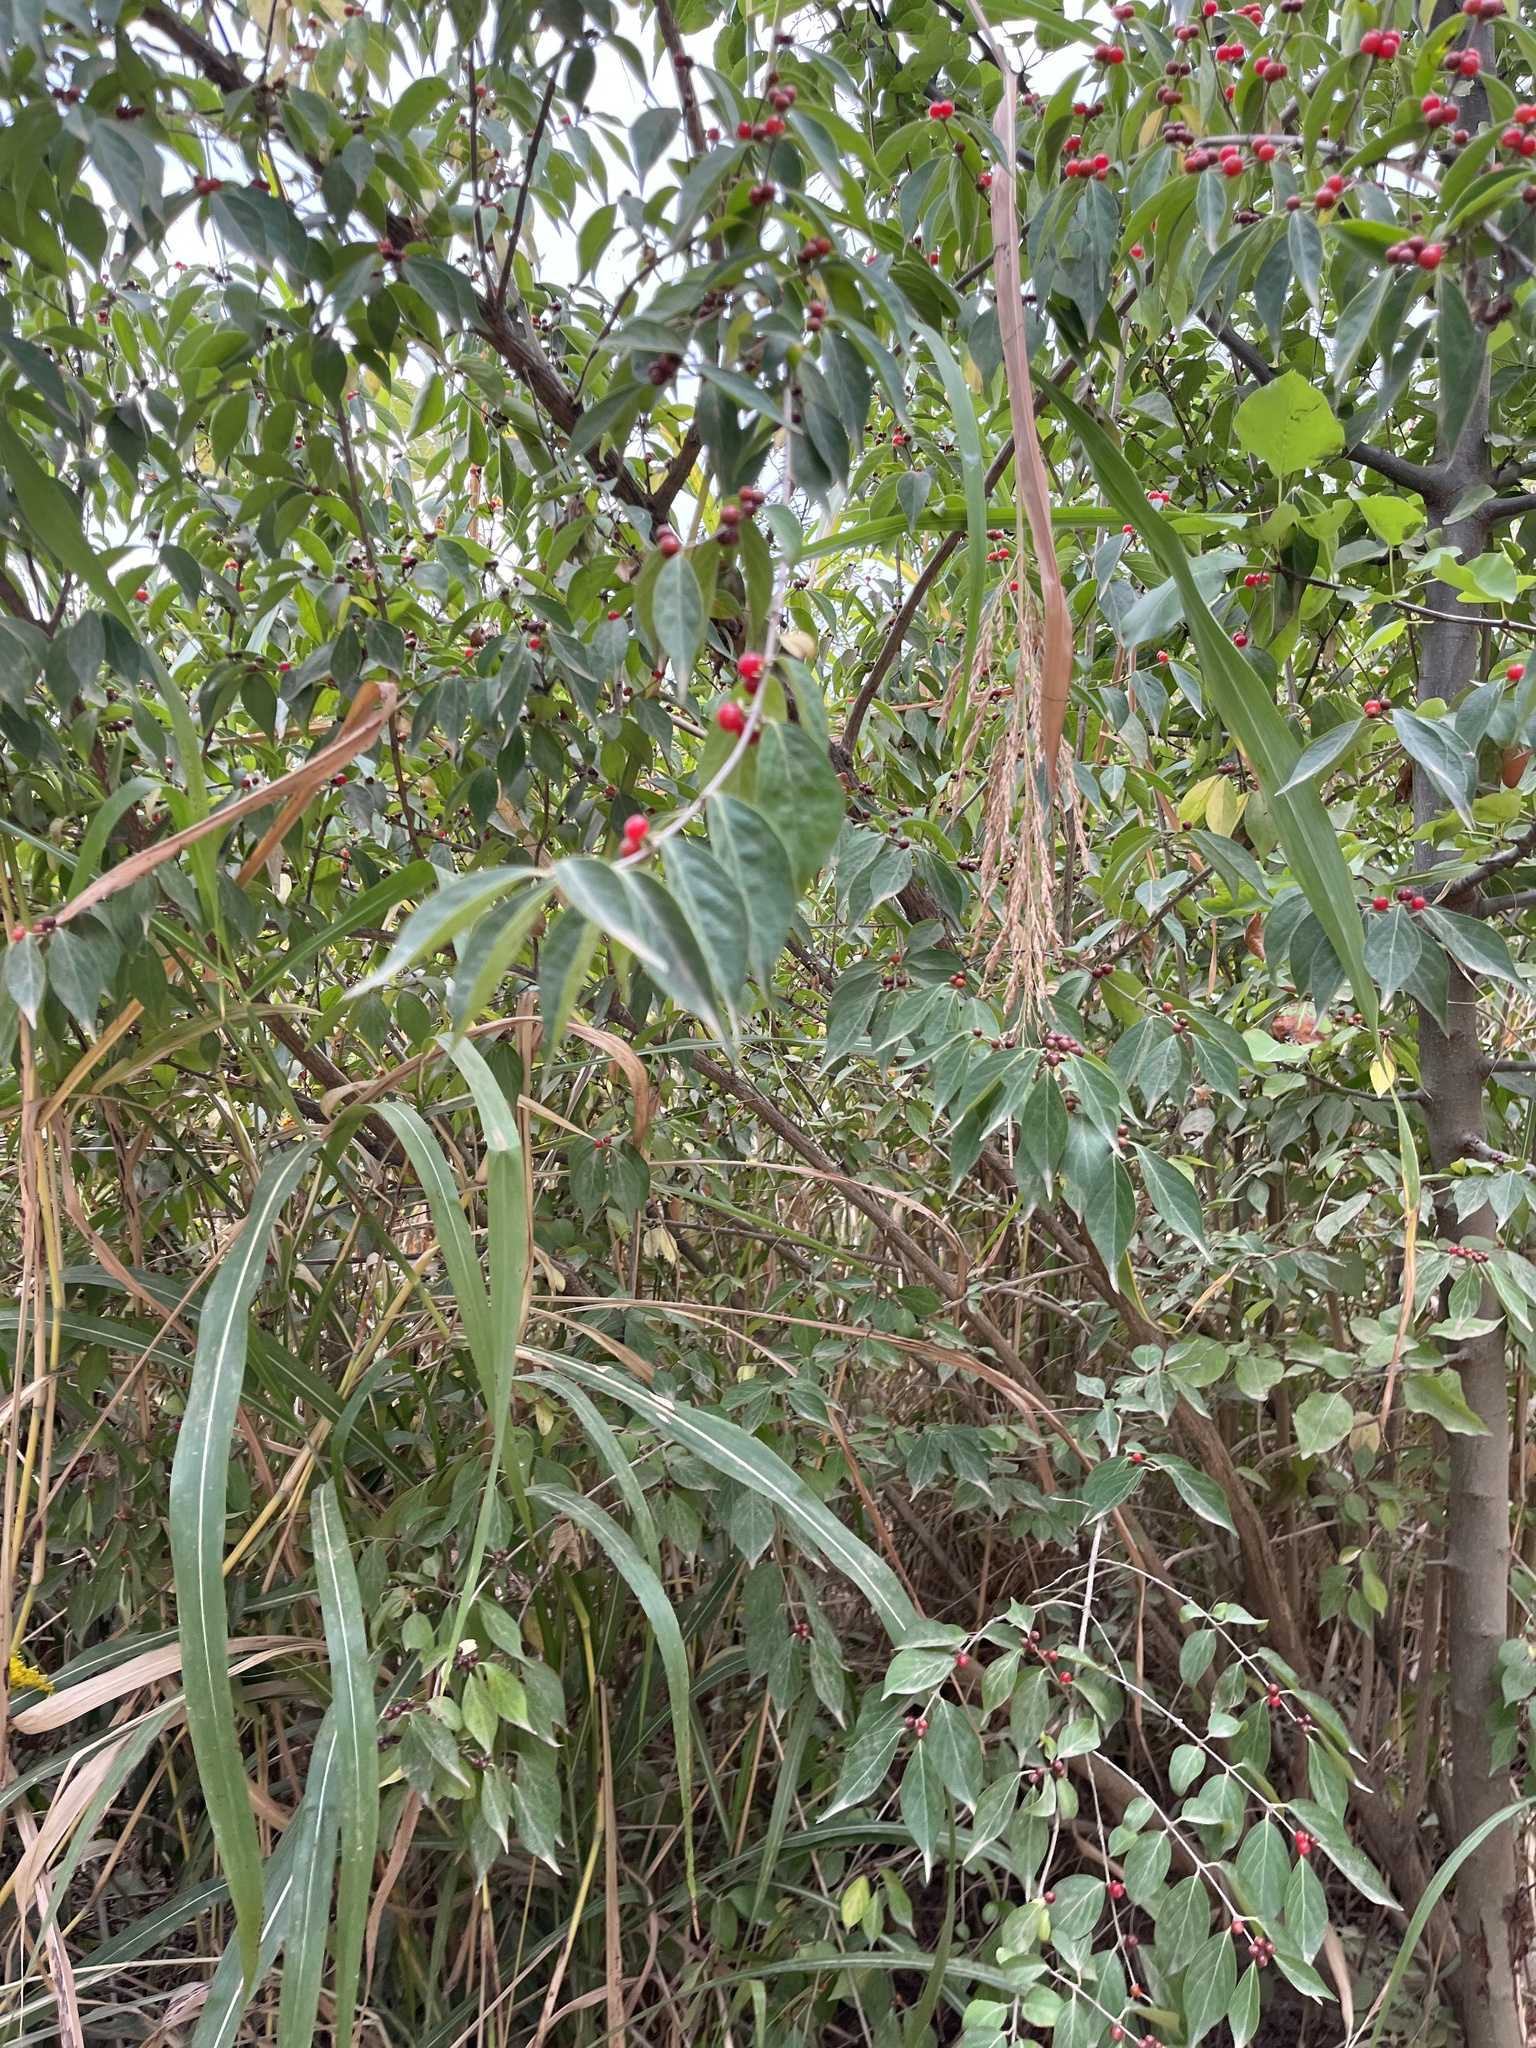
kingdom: Plantae
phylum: Tracheophyta
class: Magnoliopsida
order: Dipsacales
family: Caprifoliaceae
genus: Lonicera
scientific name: Lonicera maackii
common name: Amur honeysuckle
